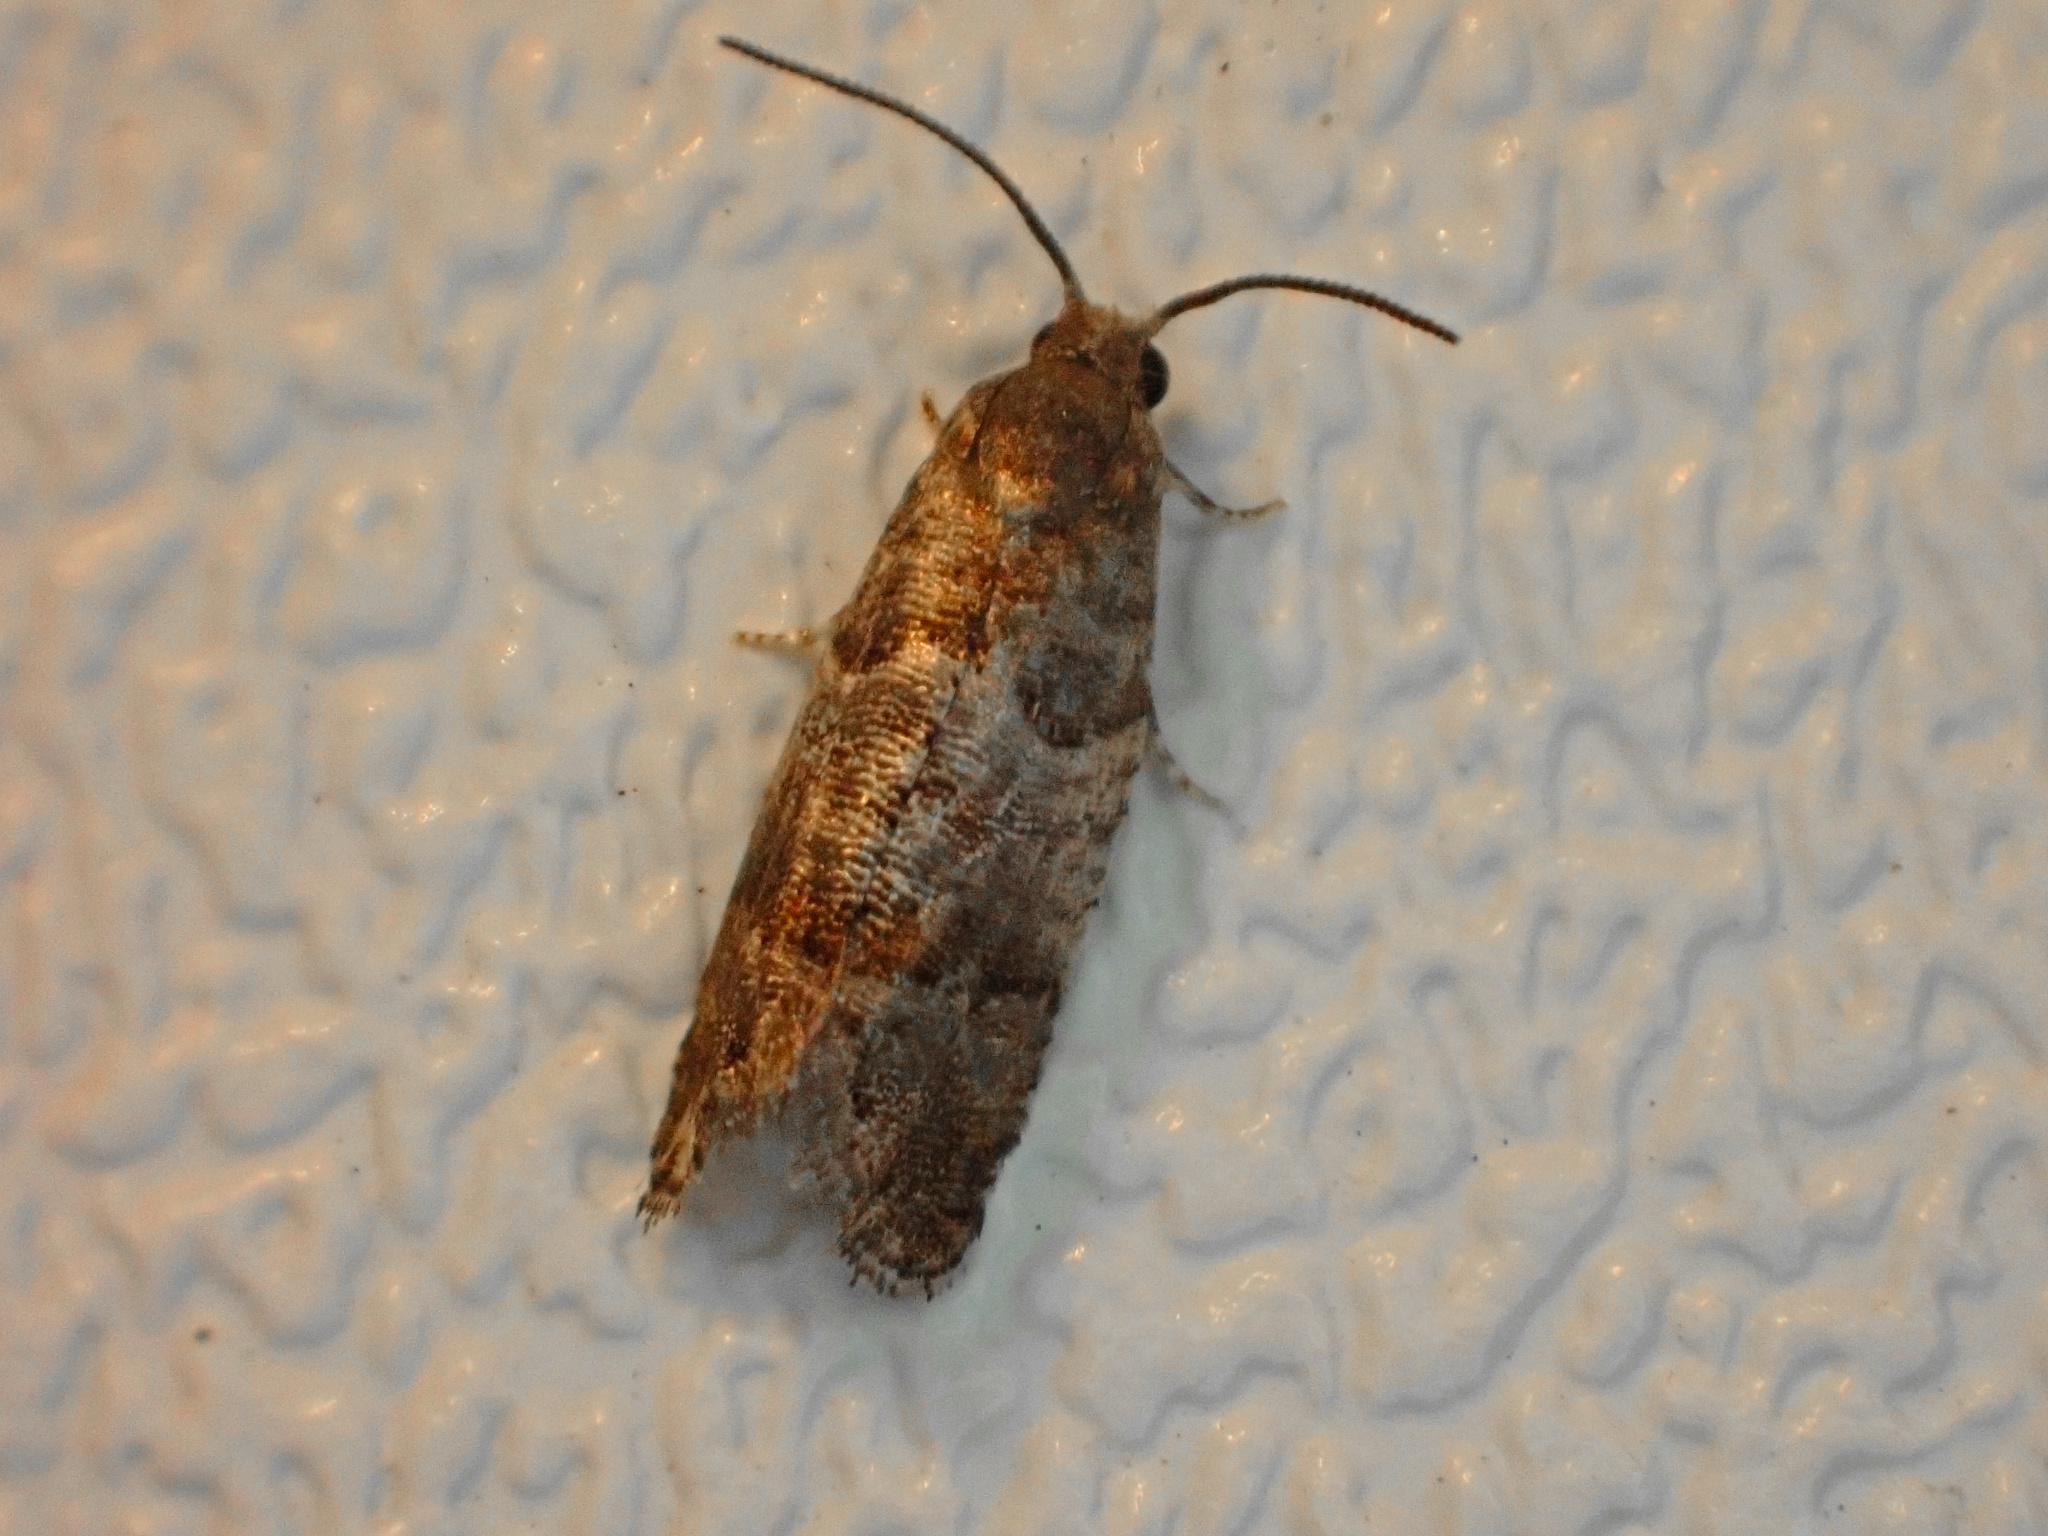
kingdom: Animalia
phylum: Arthropoda
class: Insecta
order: Lepidoptera
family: Tortricidae
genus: Cydia
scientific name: Cydia pomonella
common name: Codling moth
